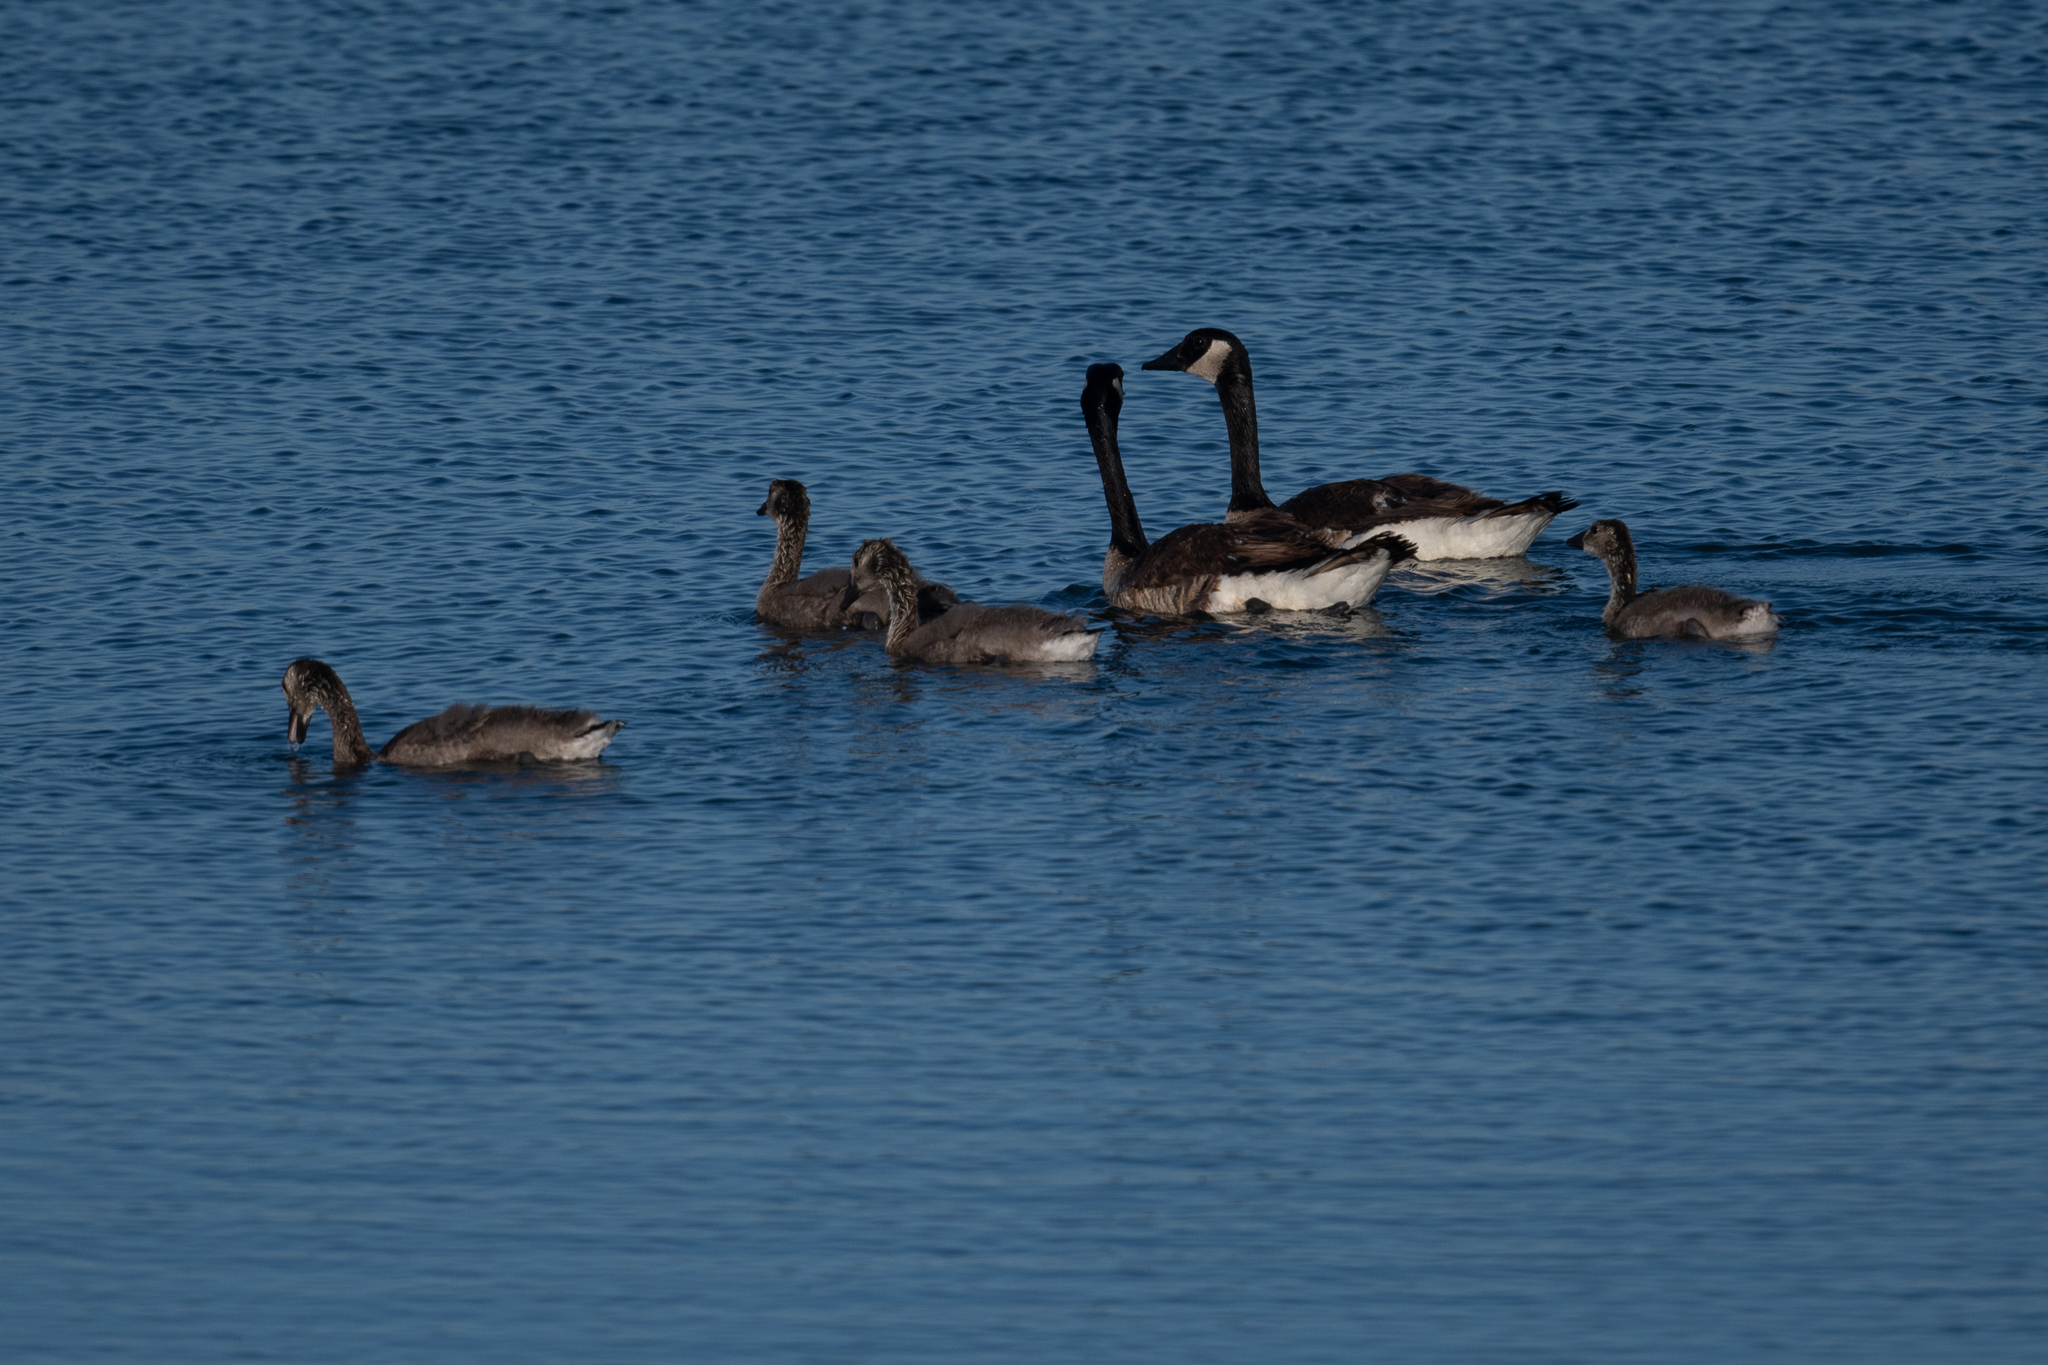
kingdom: Animalia
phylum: Chordata
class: Aves
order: Anseriformes
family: Anatidae
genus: Branta
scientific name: Branta canadensis
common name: Canada goose
